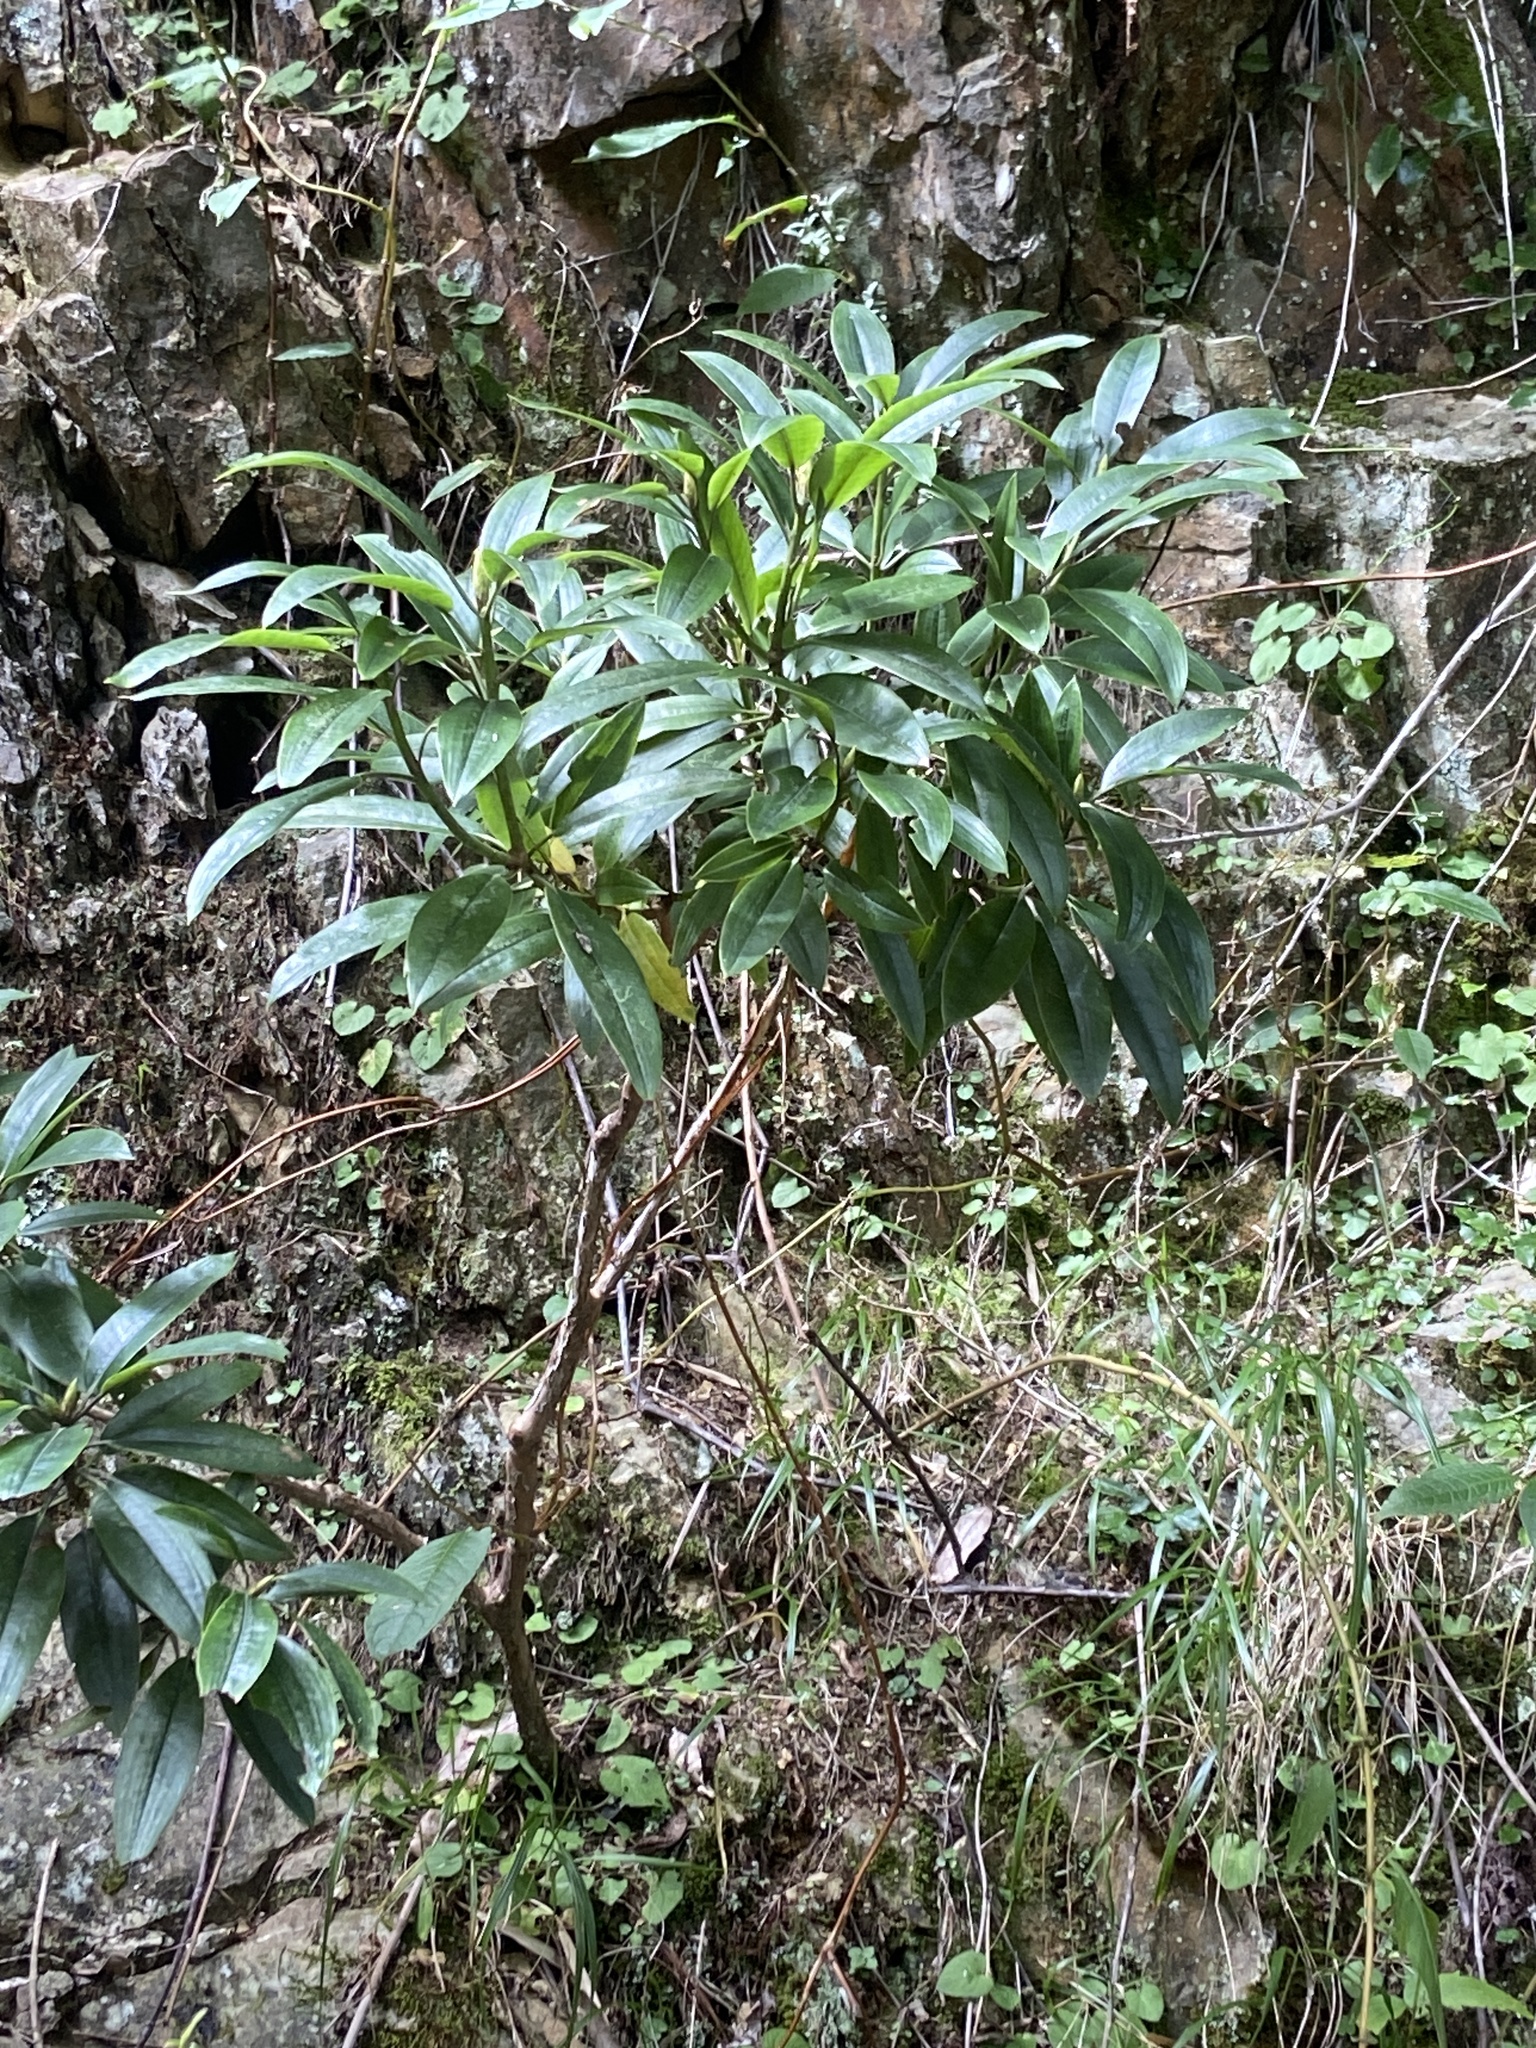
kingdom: Plantae
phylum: Tracheophyta
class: Magnoliopsida
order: Ericales
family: Ericaceae
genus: Rhododendron
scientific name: Rhododendron pseudochrysanthum
